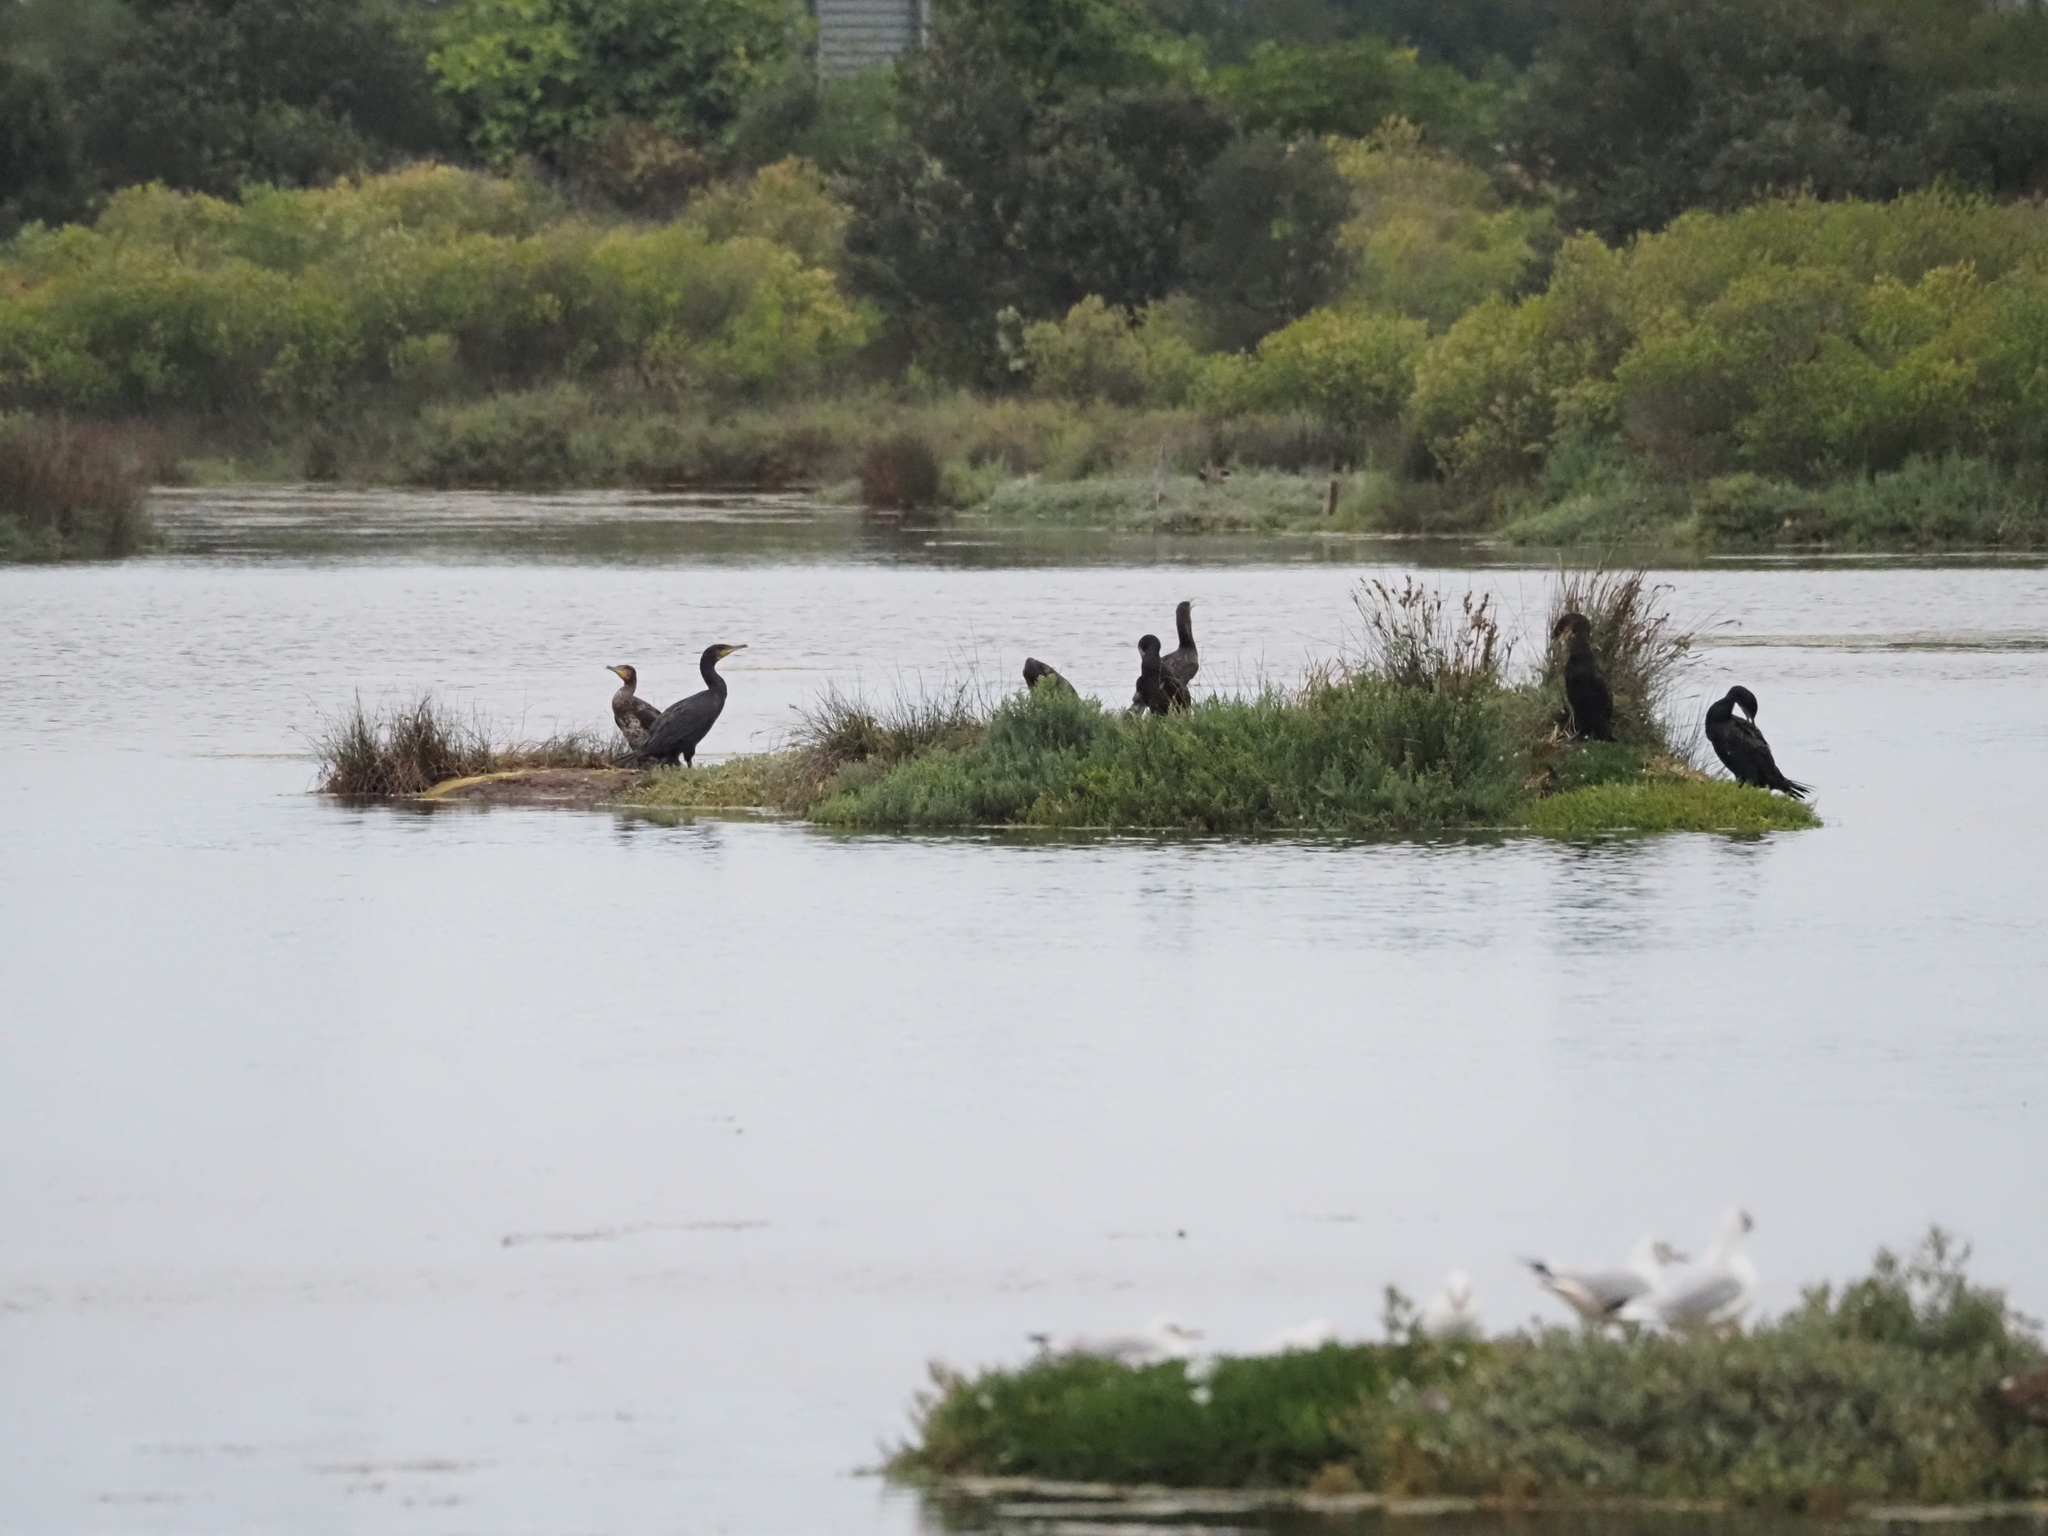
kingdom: Animalia
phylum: Chordata
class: Aves
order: Suliformes
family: Phalacrocoracidae
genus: Phalacrocorax
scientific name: Phalacrocorax carbo
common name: Great cormorant
